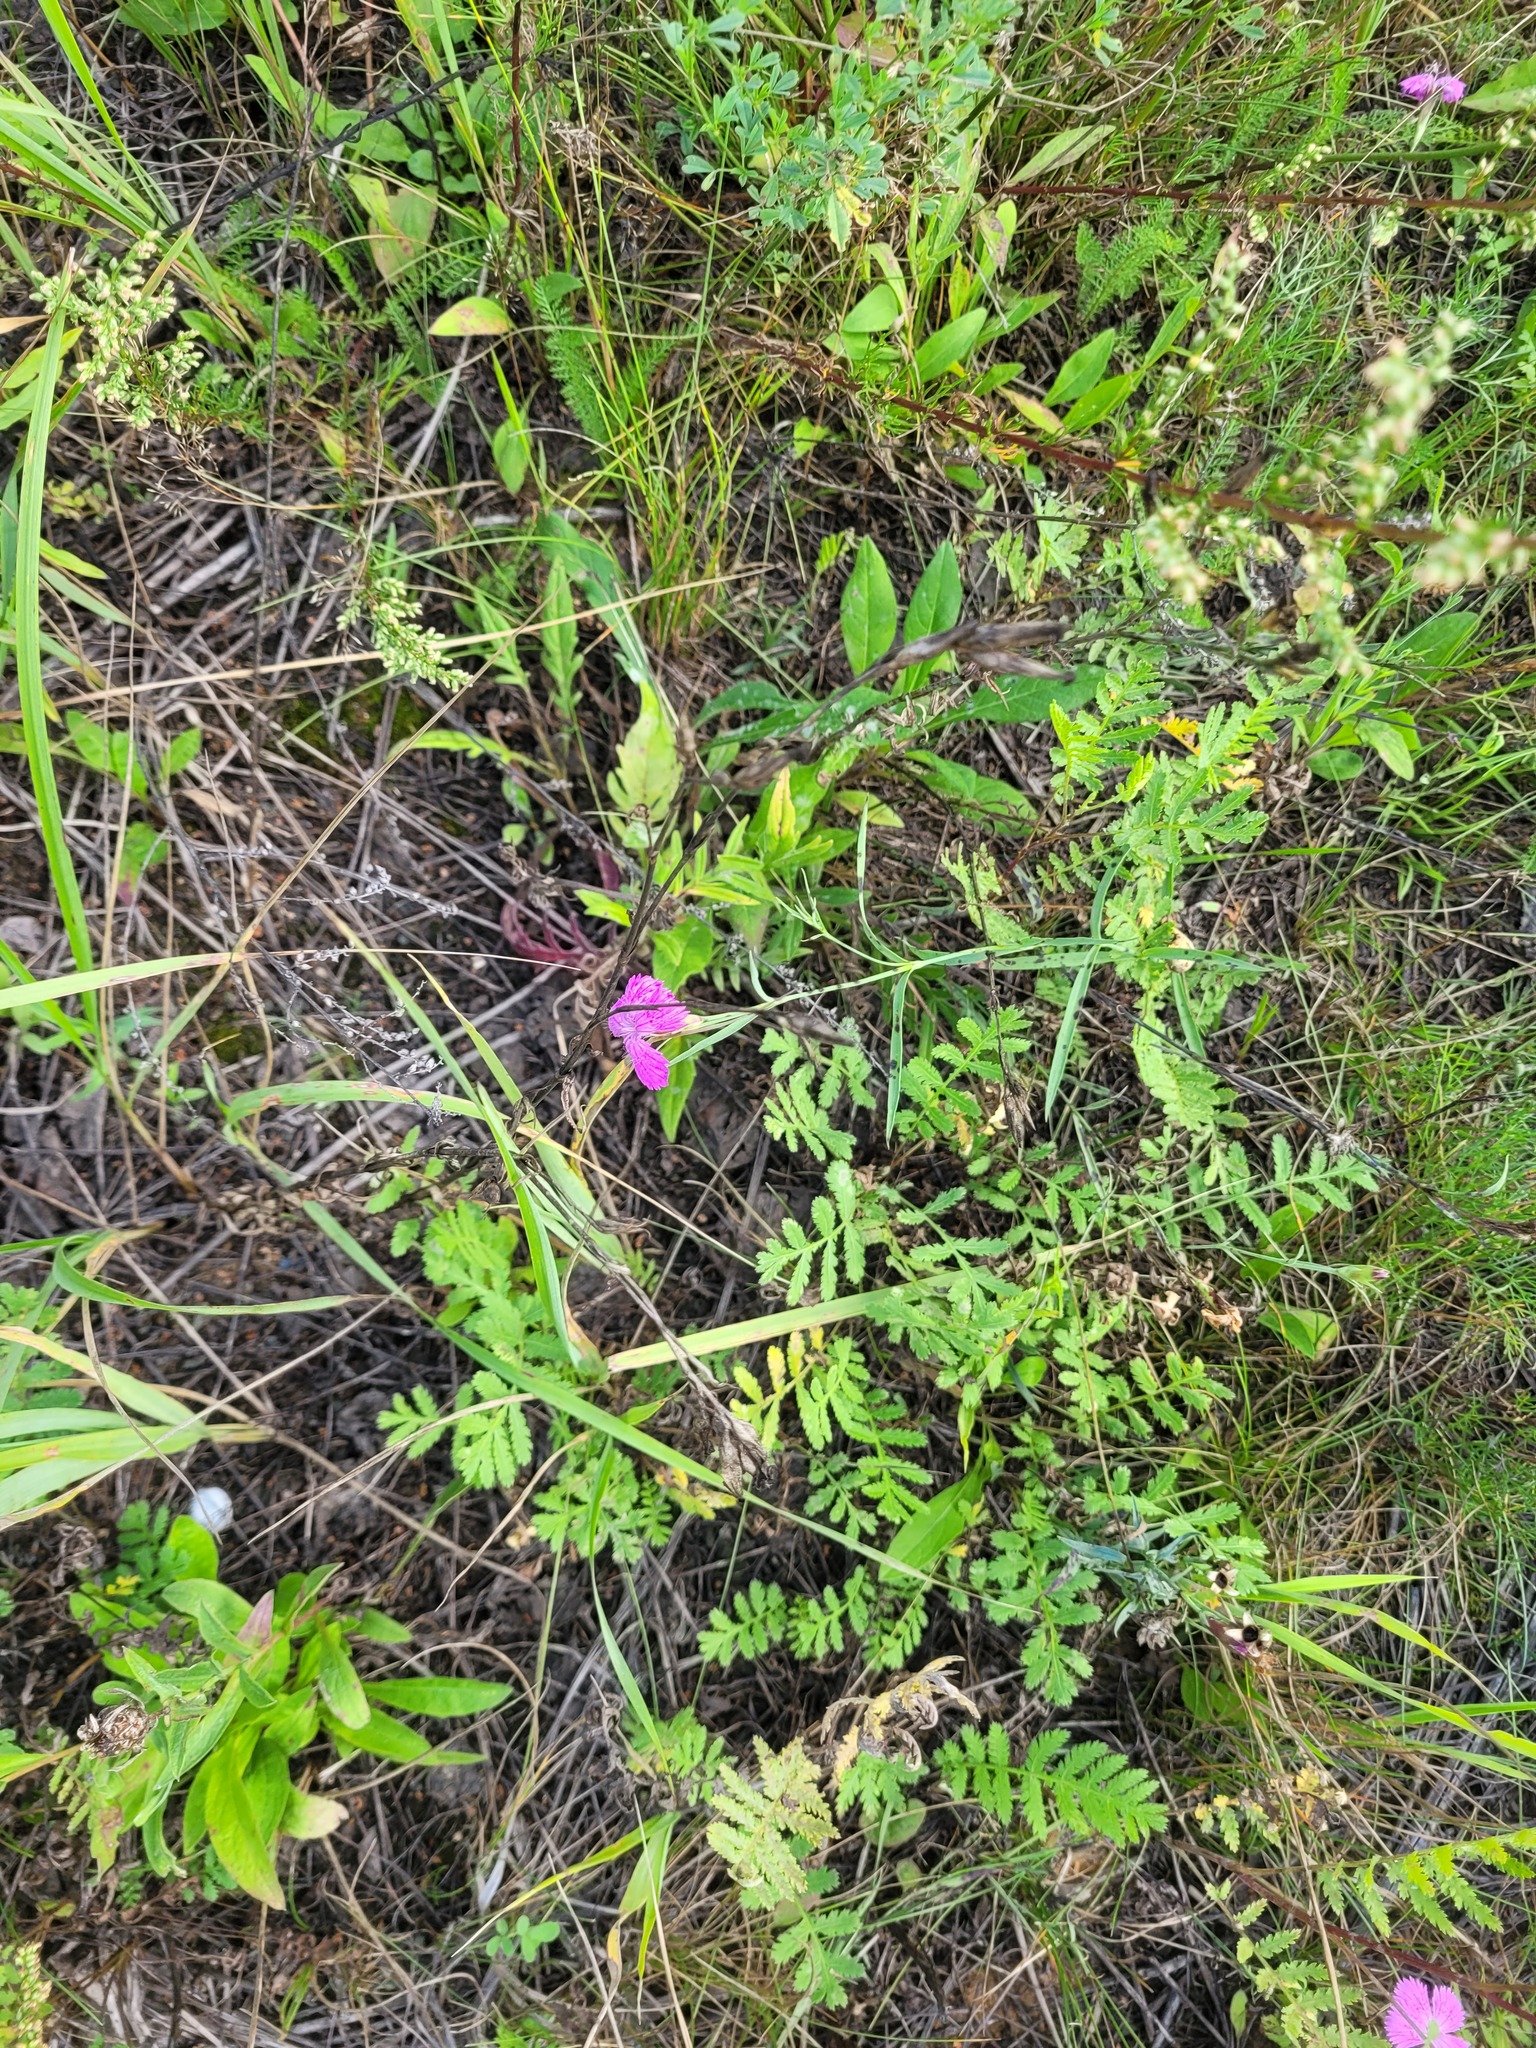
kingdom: Plantae
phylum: Tracheophyta
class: Magnoliopsida
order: Caryophyllales
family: Caryophyllaceae
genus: Dianthus
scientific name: Dianthus chinensis
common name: Rainbow pink
